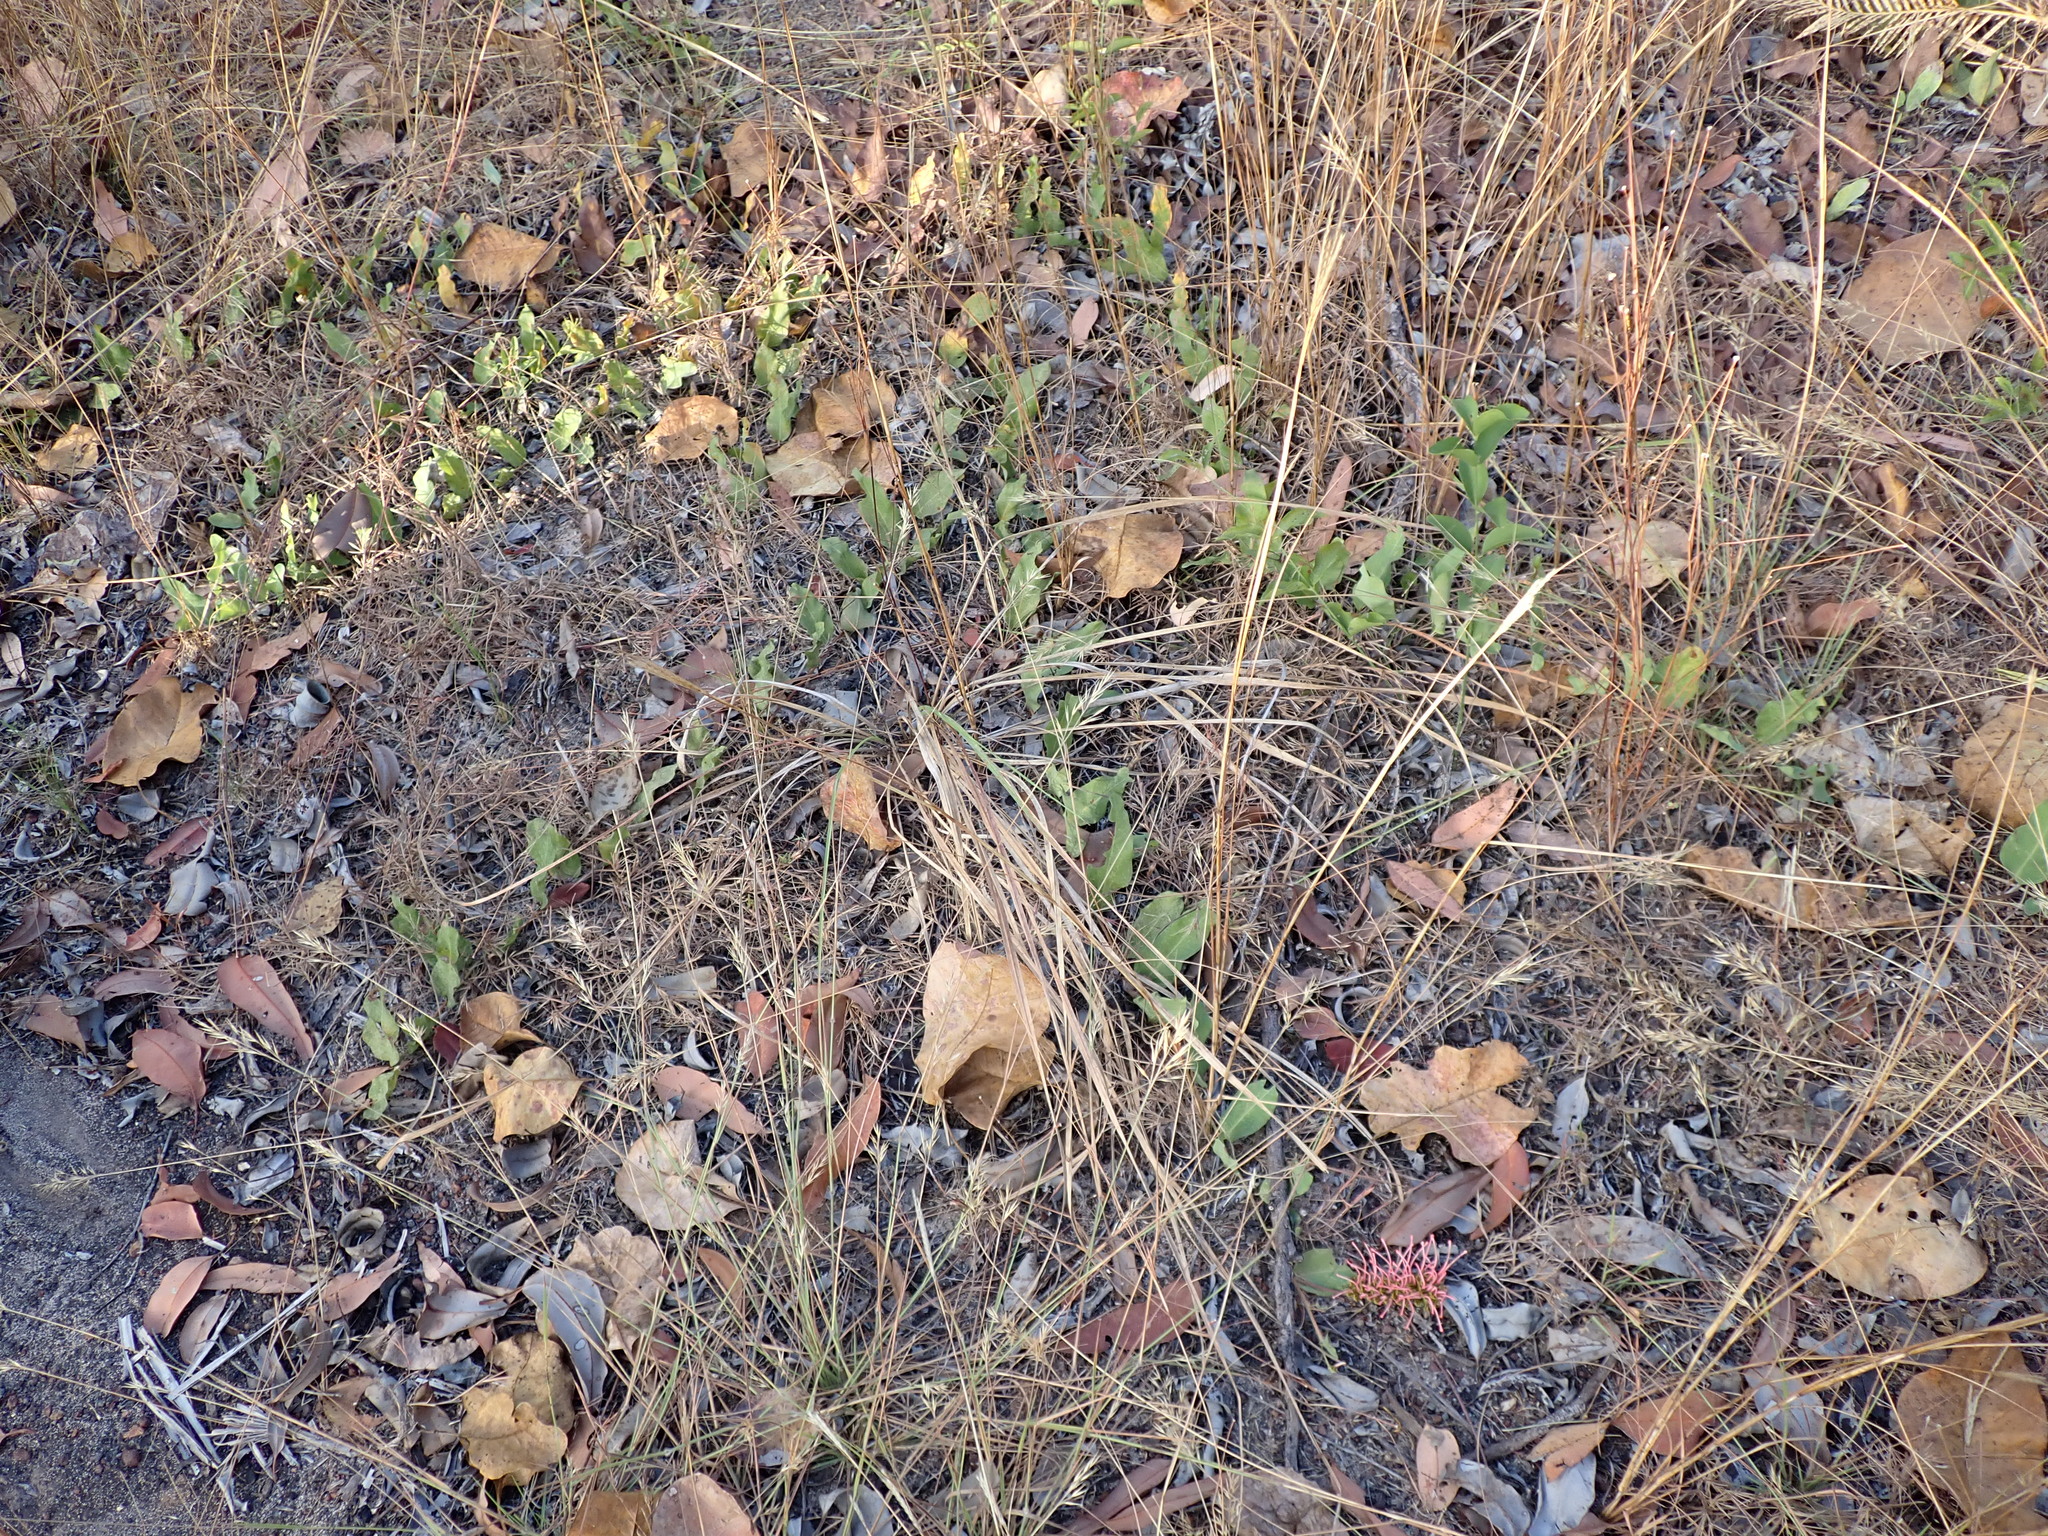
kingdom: Plantae
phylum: Tracheophyta
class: Magnoliopsida
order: Proteales
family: Proteaceae
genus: Grevillea
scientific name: Grevillea goodii
